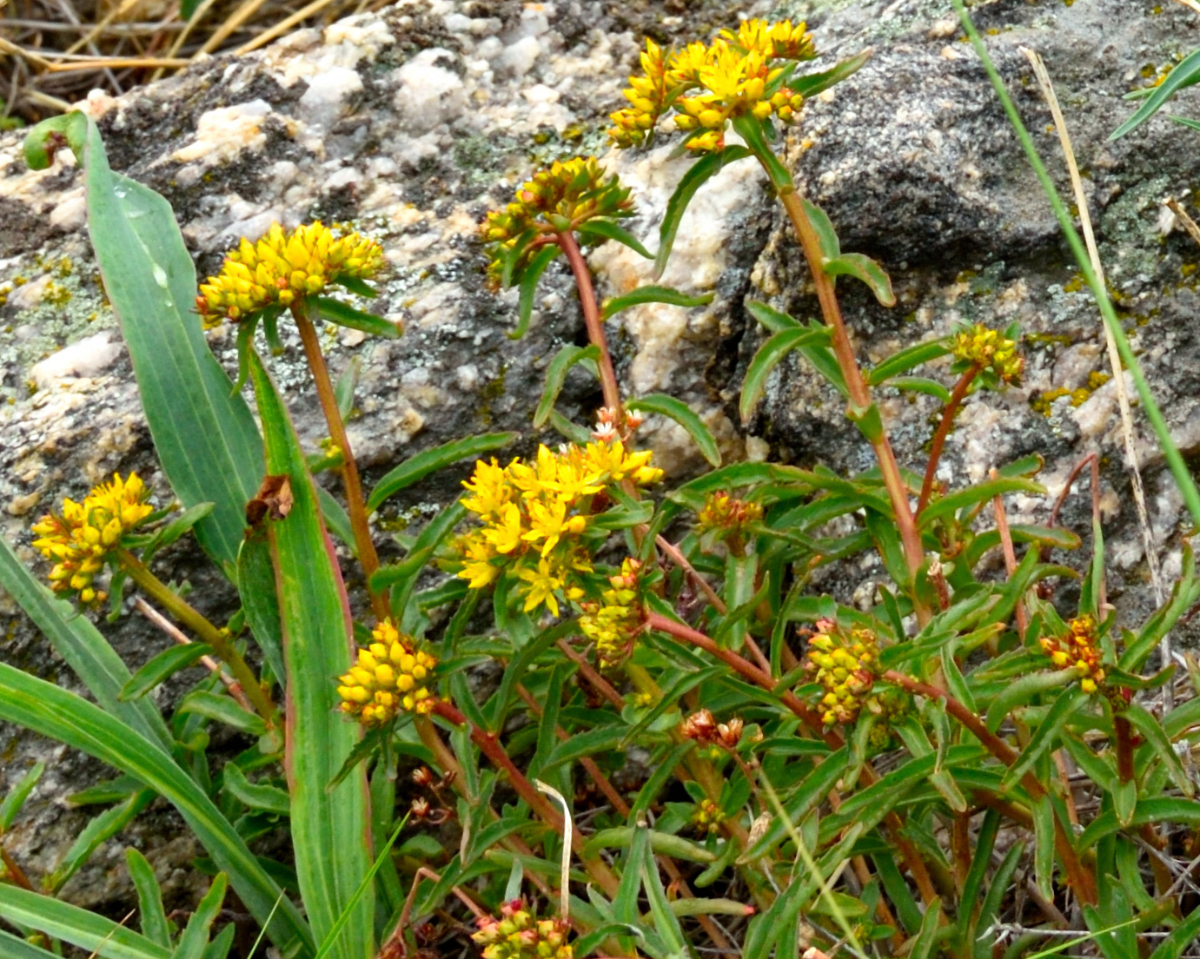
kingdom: Plantae
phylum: Tracheophyta
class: Magnoliopsida
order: Saxifragales
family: Crassulaceae
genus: Phedimus
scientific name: Phedimus aizoon
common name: Orpin aizoon
